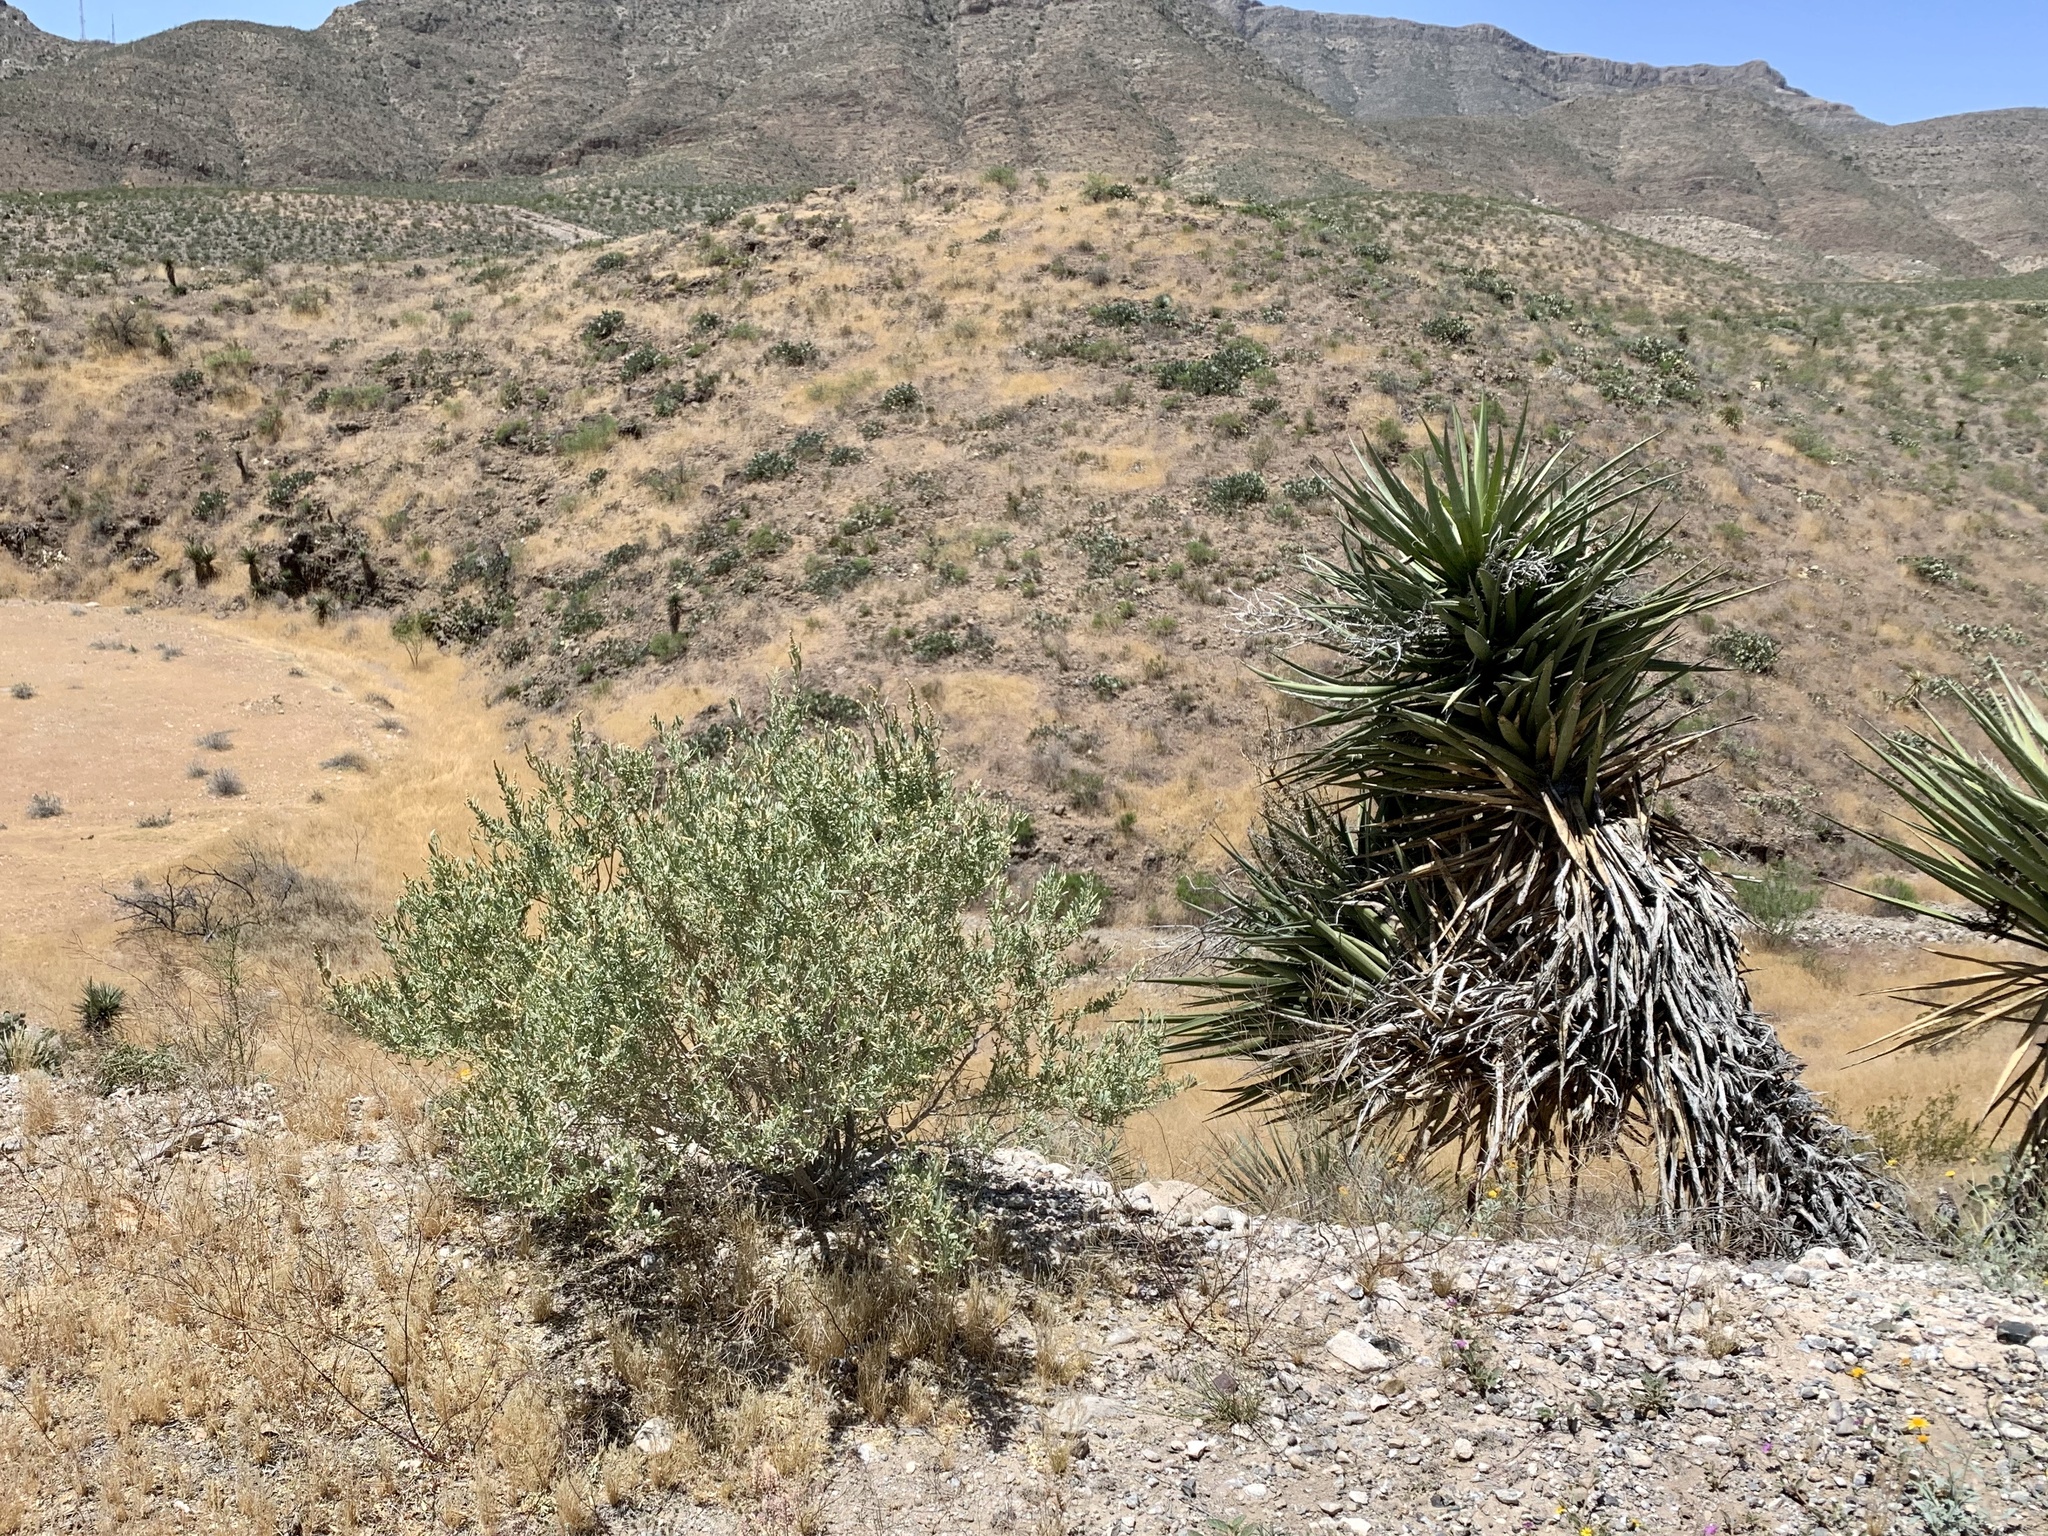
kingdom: Plantae
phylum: Tracheophyta
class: Magnoliopsida
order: Caryophyllales
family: Amaranthaceae
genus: Atriplex
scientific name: Atriplex canescens
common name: Four-wing saltbush
